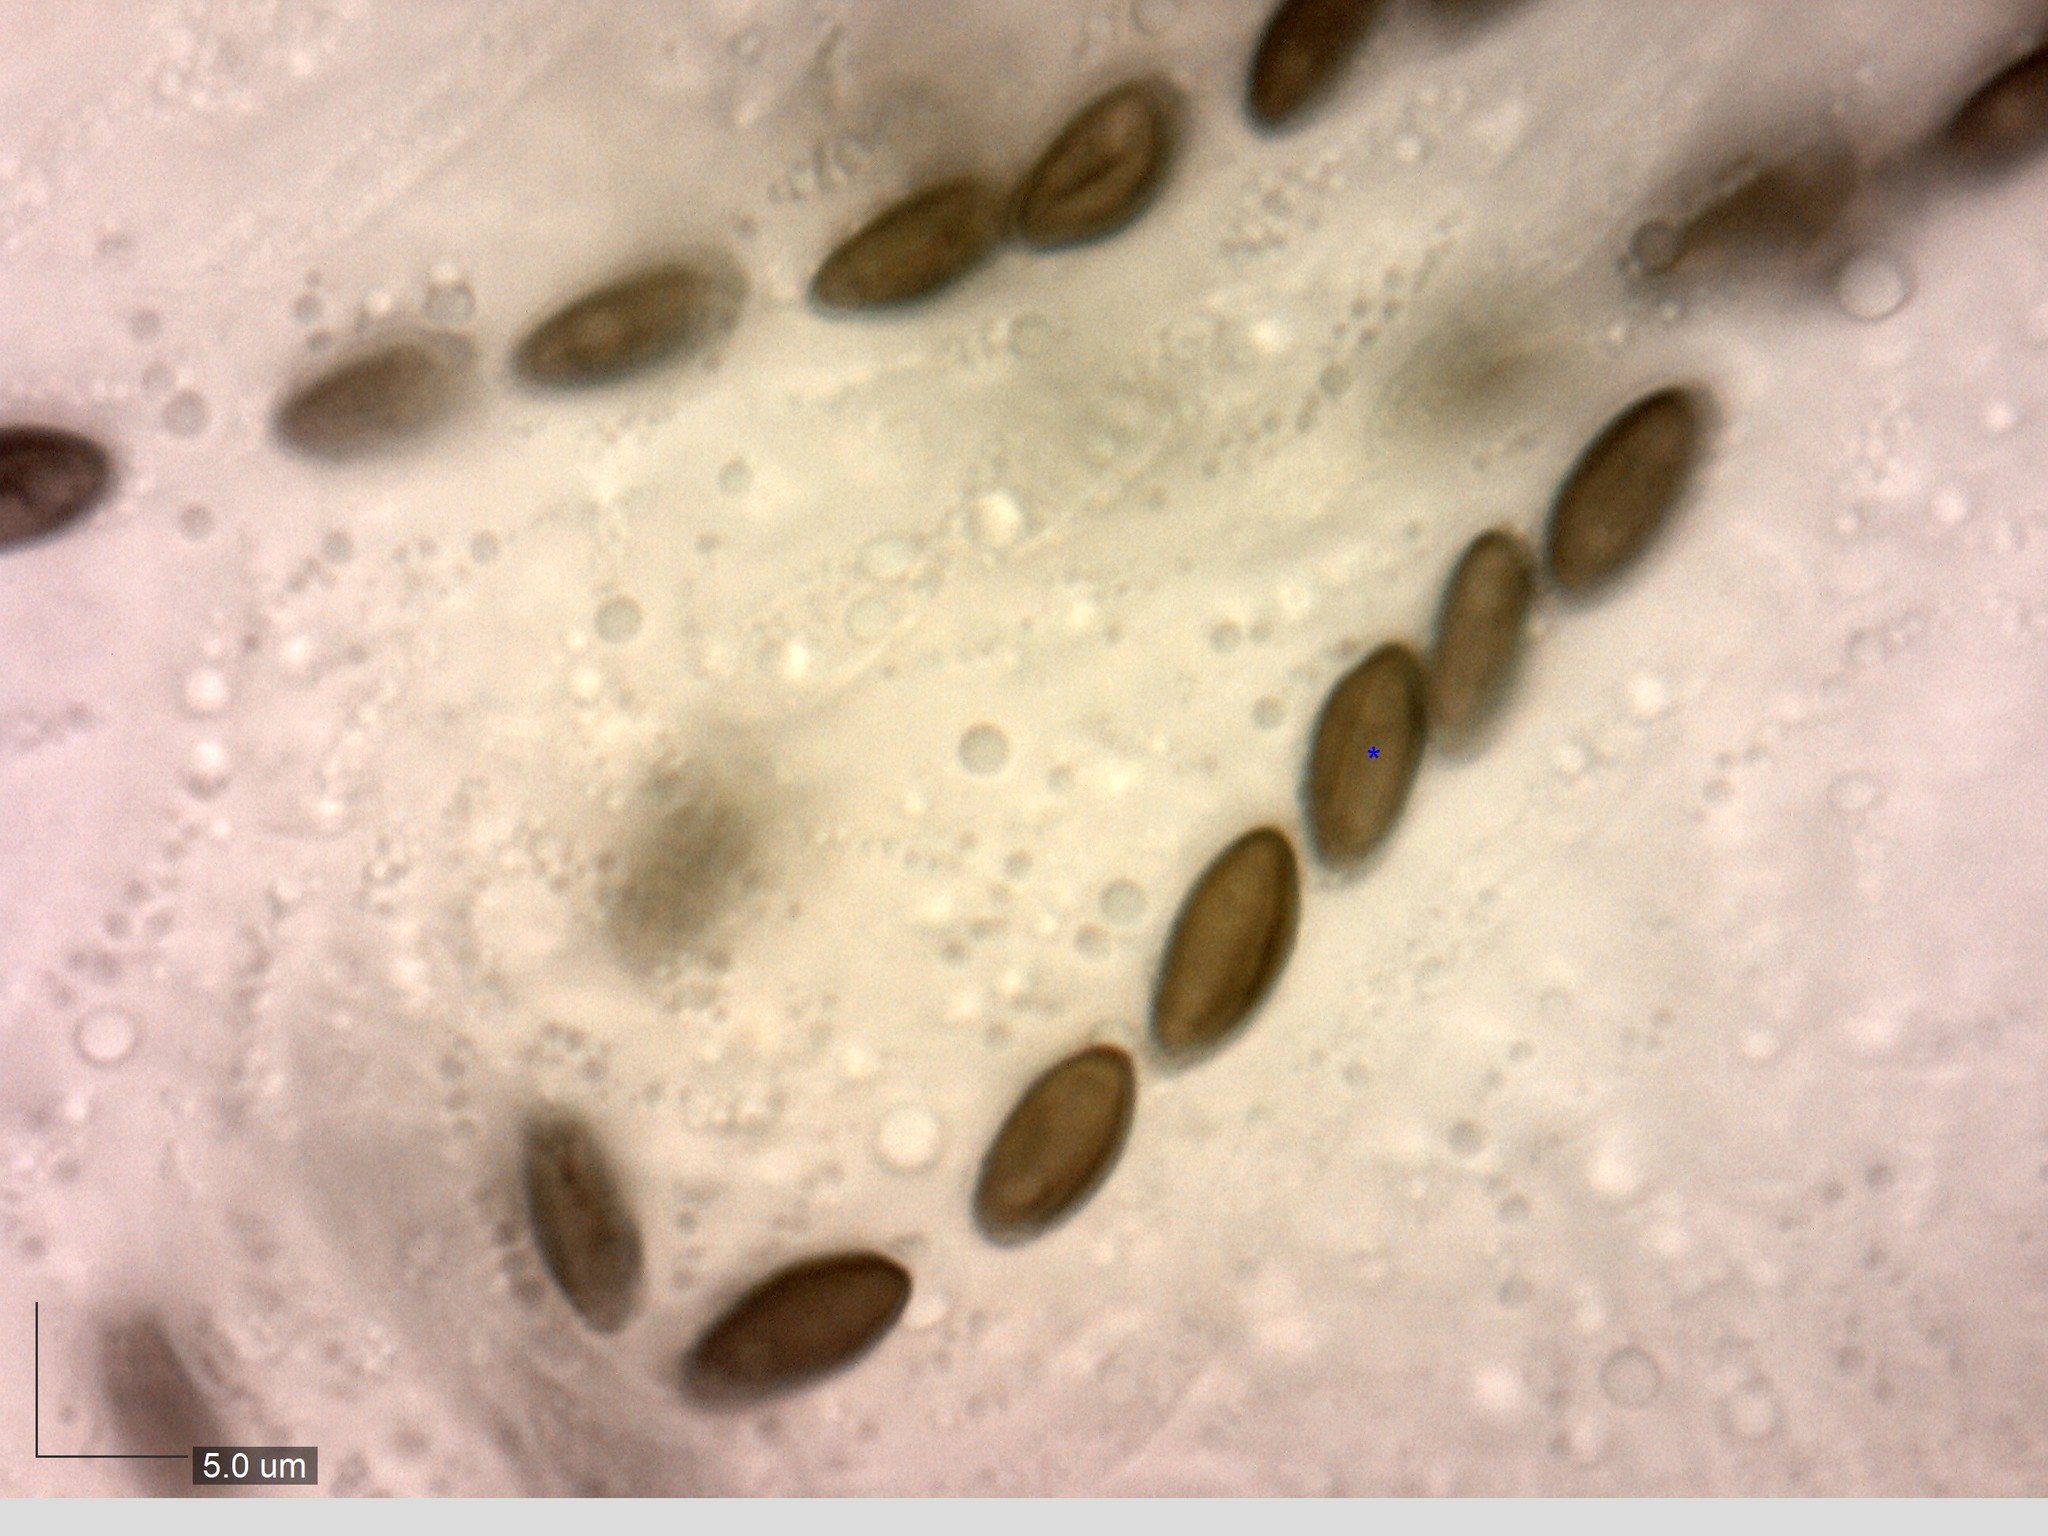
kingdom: Fungi
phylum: Ascomycota
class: Sordariomycetes
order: Xylariales
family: Hypoxylaceae
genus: Hypoxylon
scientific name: Hypoxylon rubiginosum
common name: Rusty woodwart
